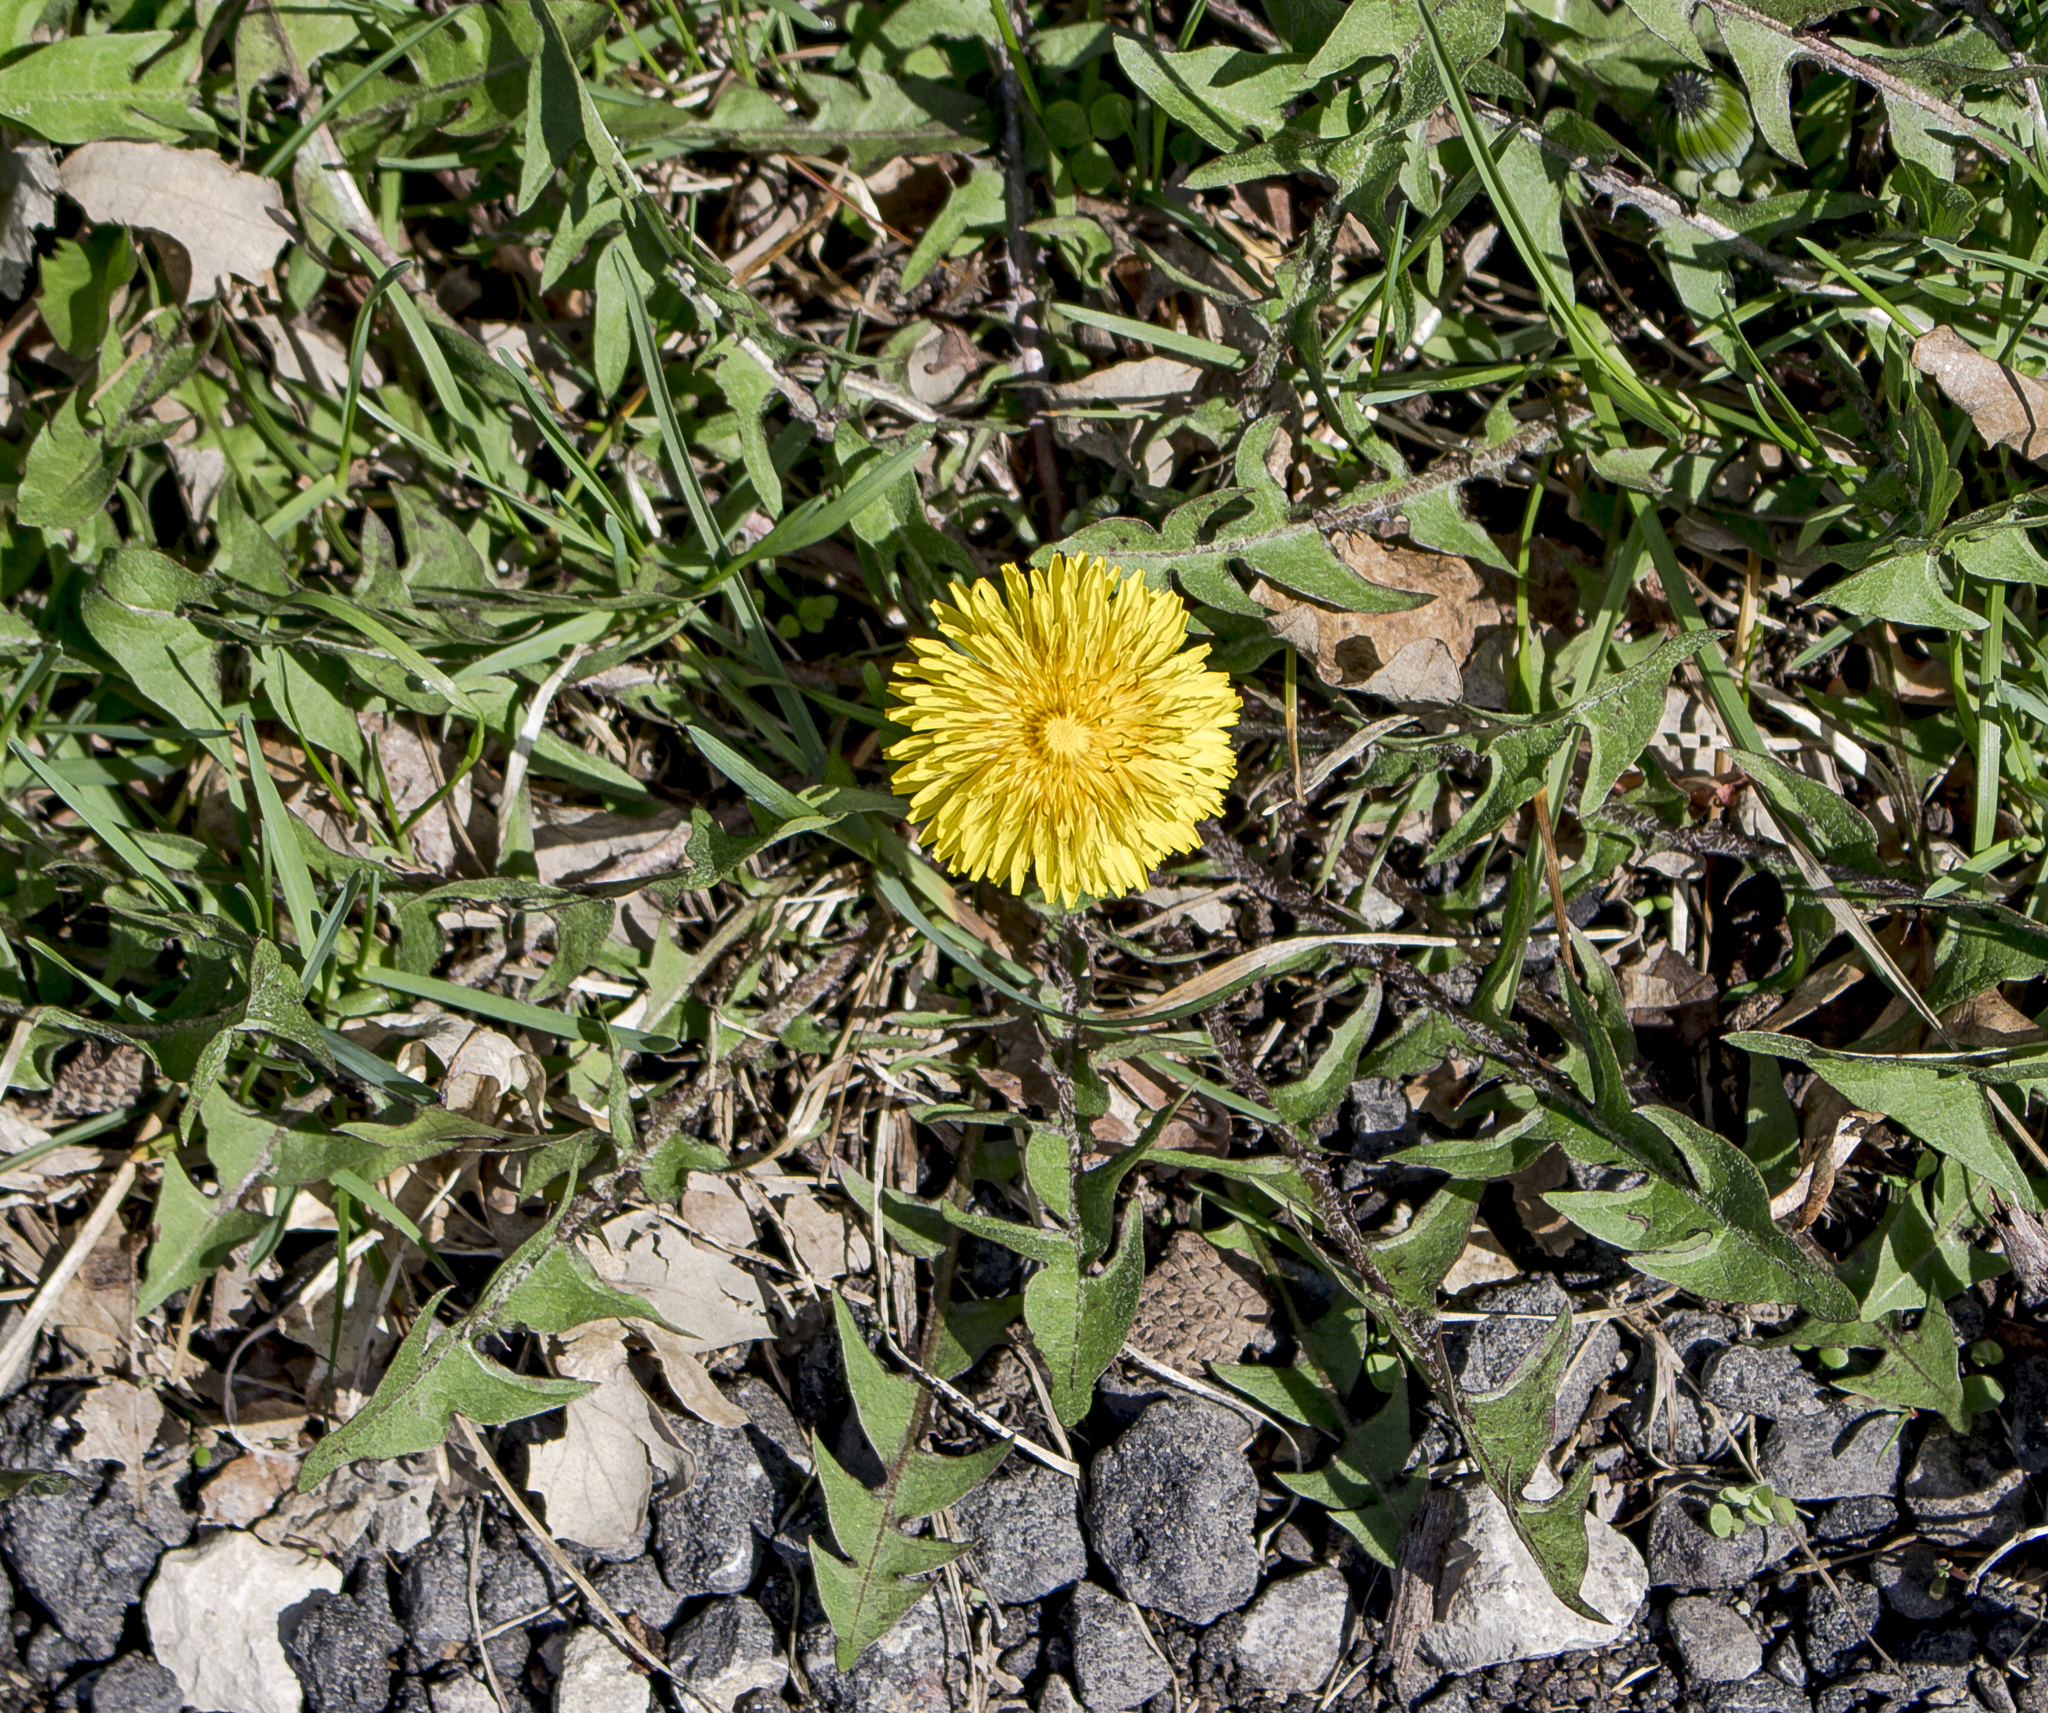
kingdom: Plantae
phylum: Tracheophyta
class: Magnoliopsida
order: Asterales
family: Asteraceae
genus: Taraxacum
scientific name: Taraxacum officinale
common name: Common dandelion
